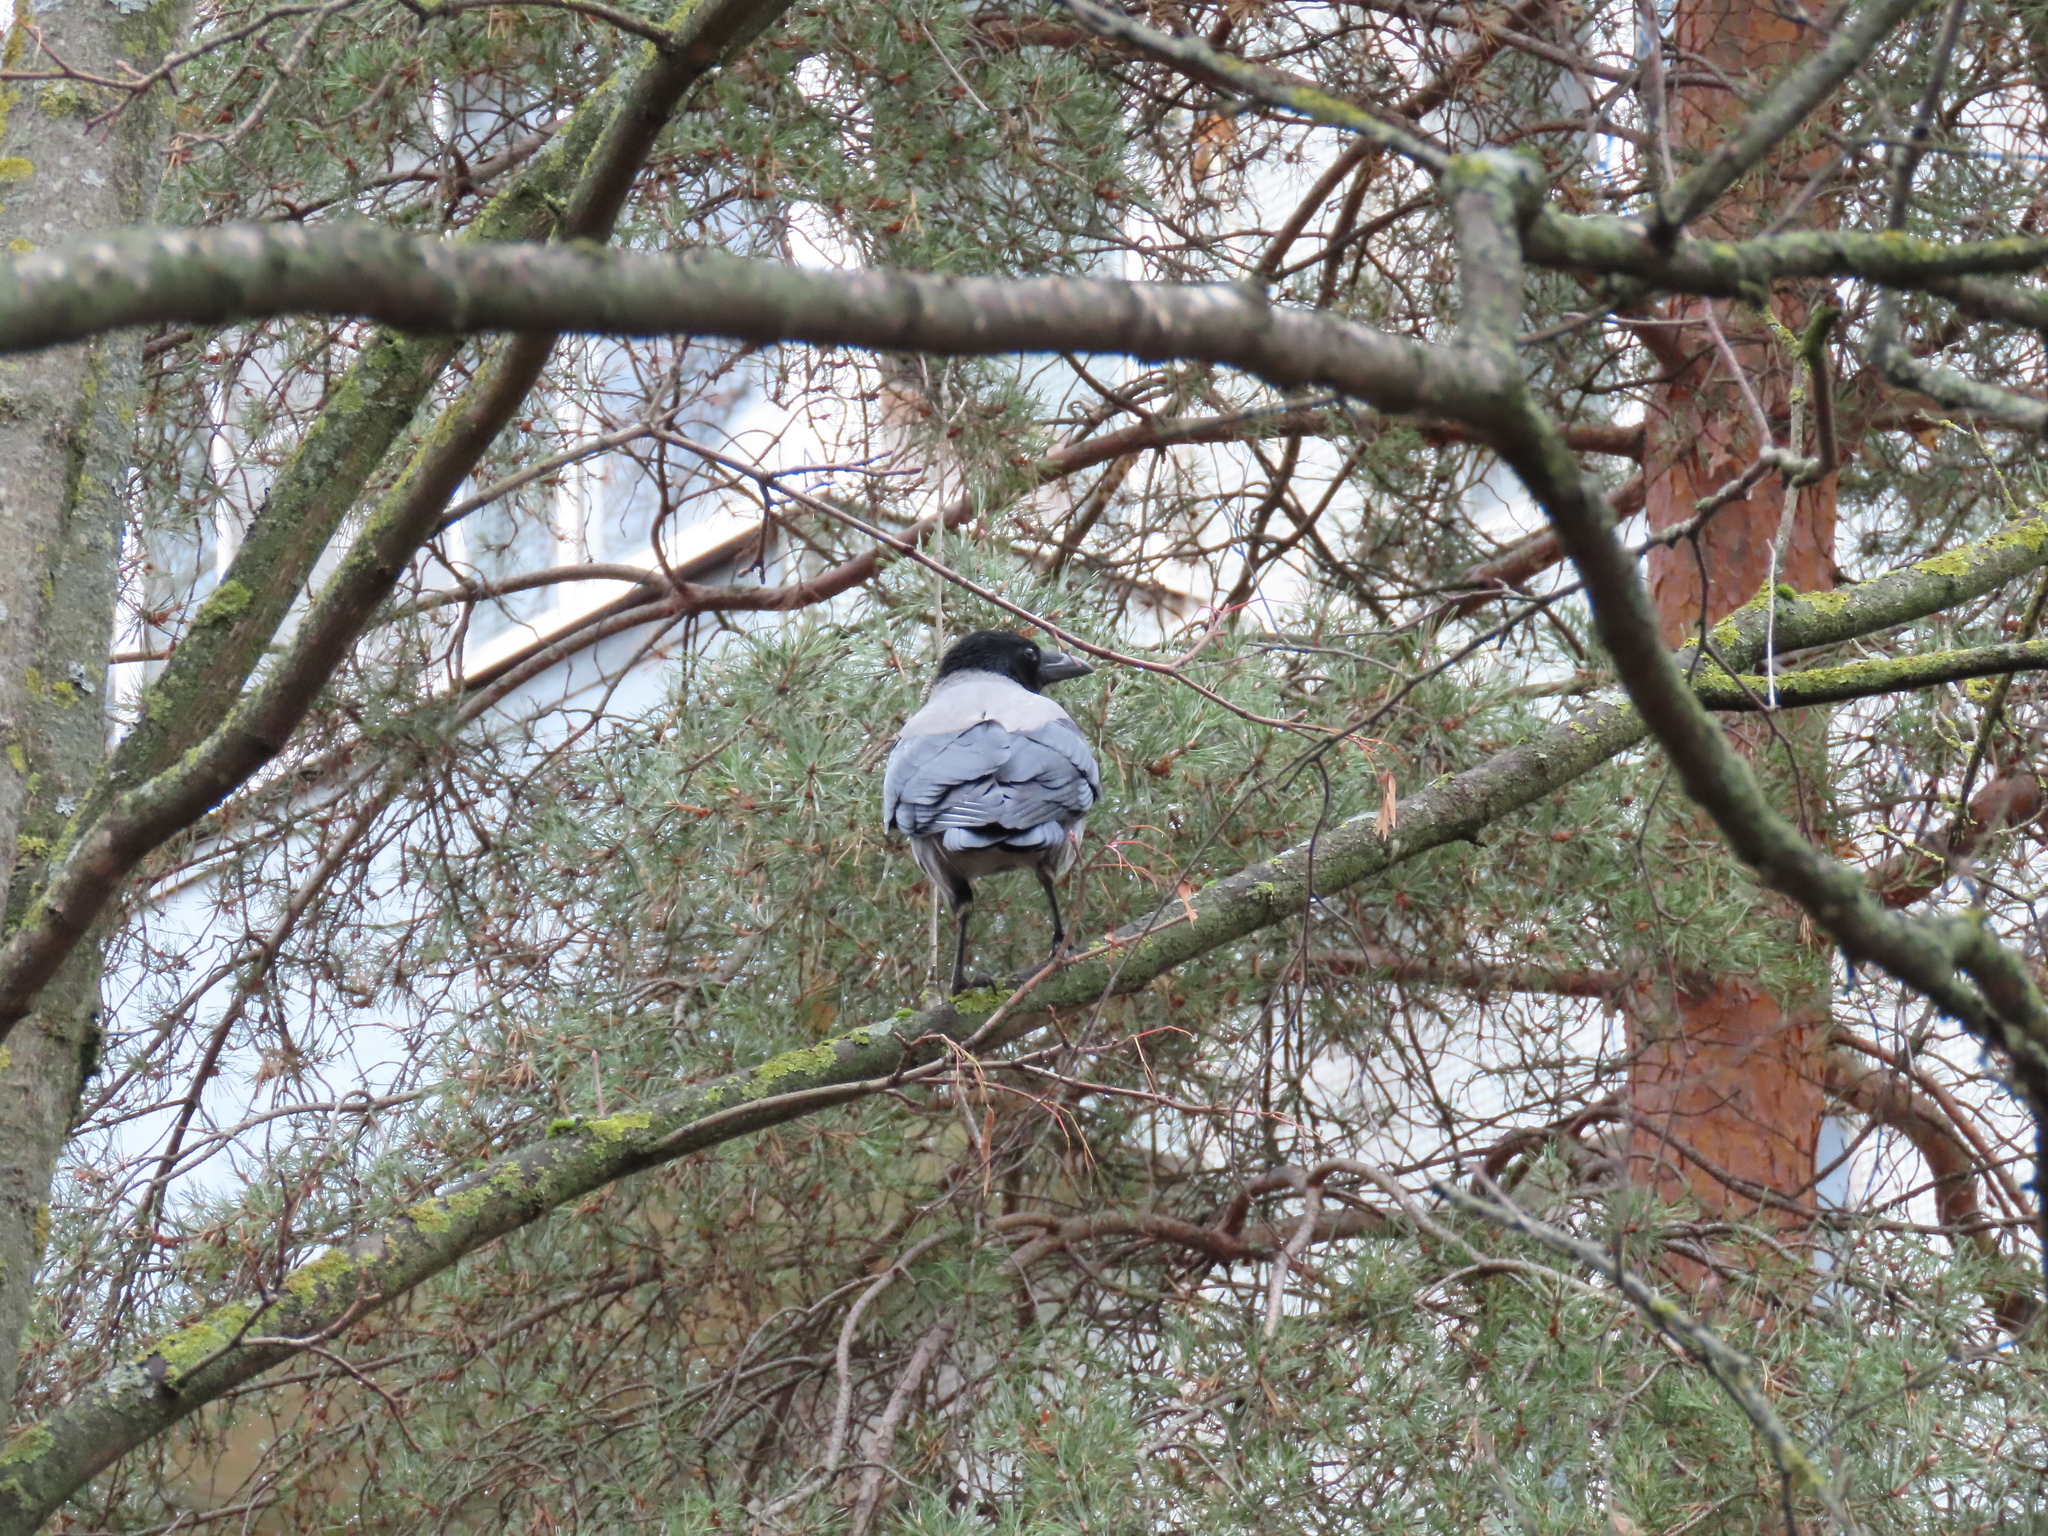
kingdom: Animalia
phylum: Chordata
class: Aves
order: Passeriformes
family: Corvidae
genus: Corvus
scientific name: Corvus cornix
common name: Hooded crow
